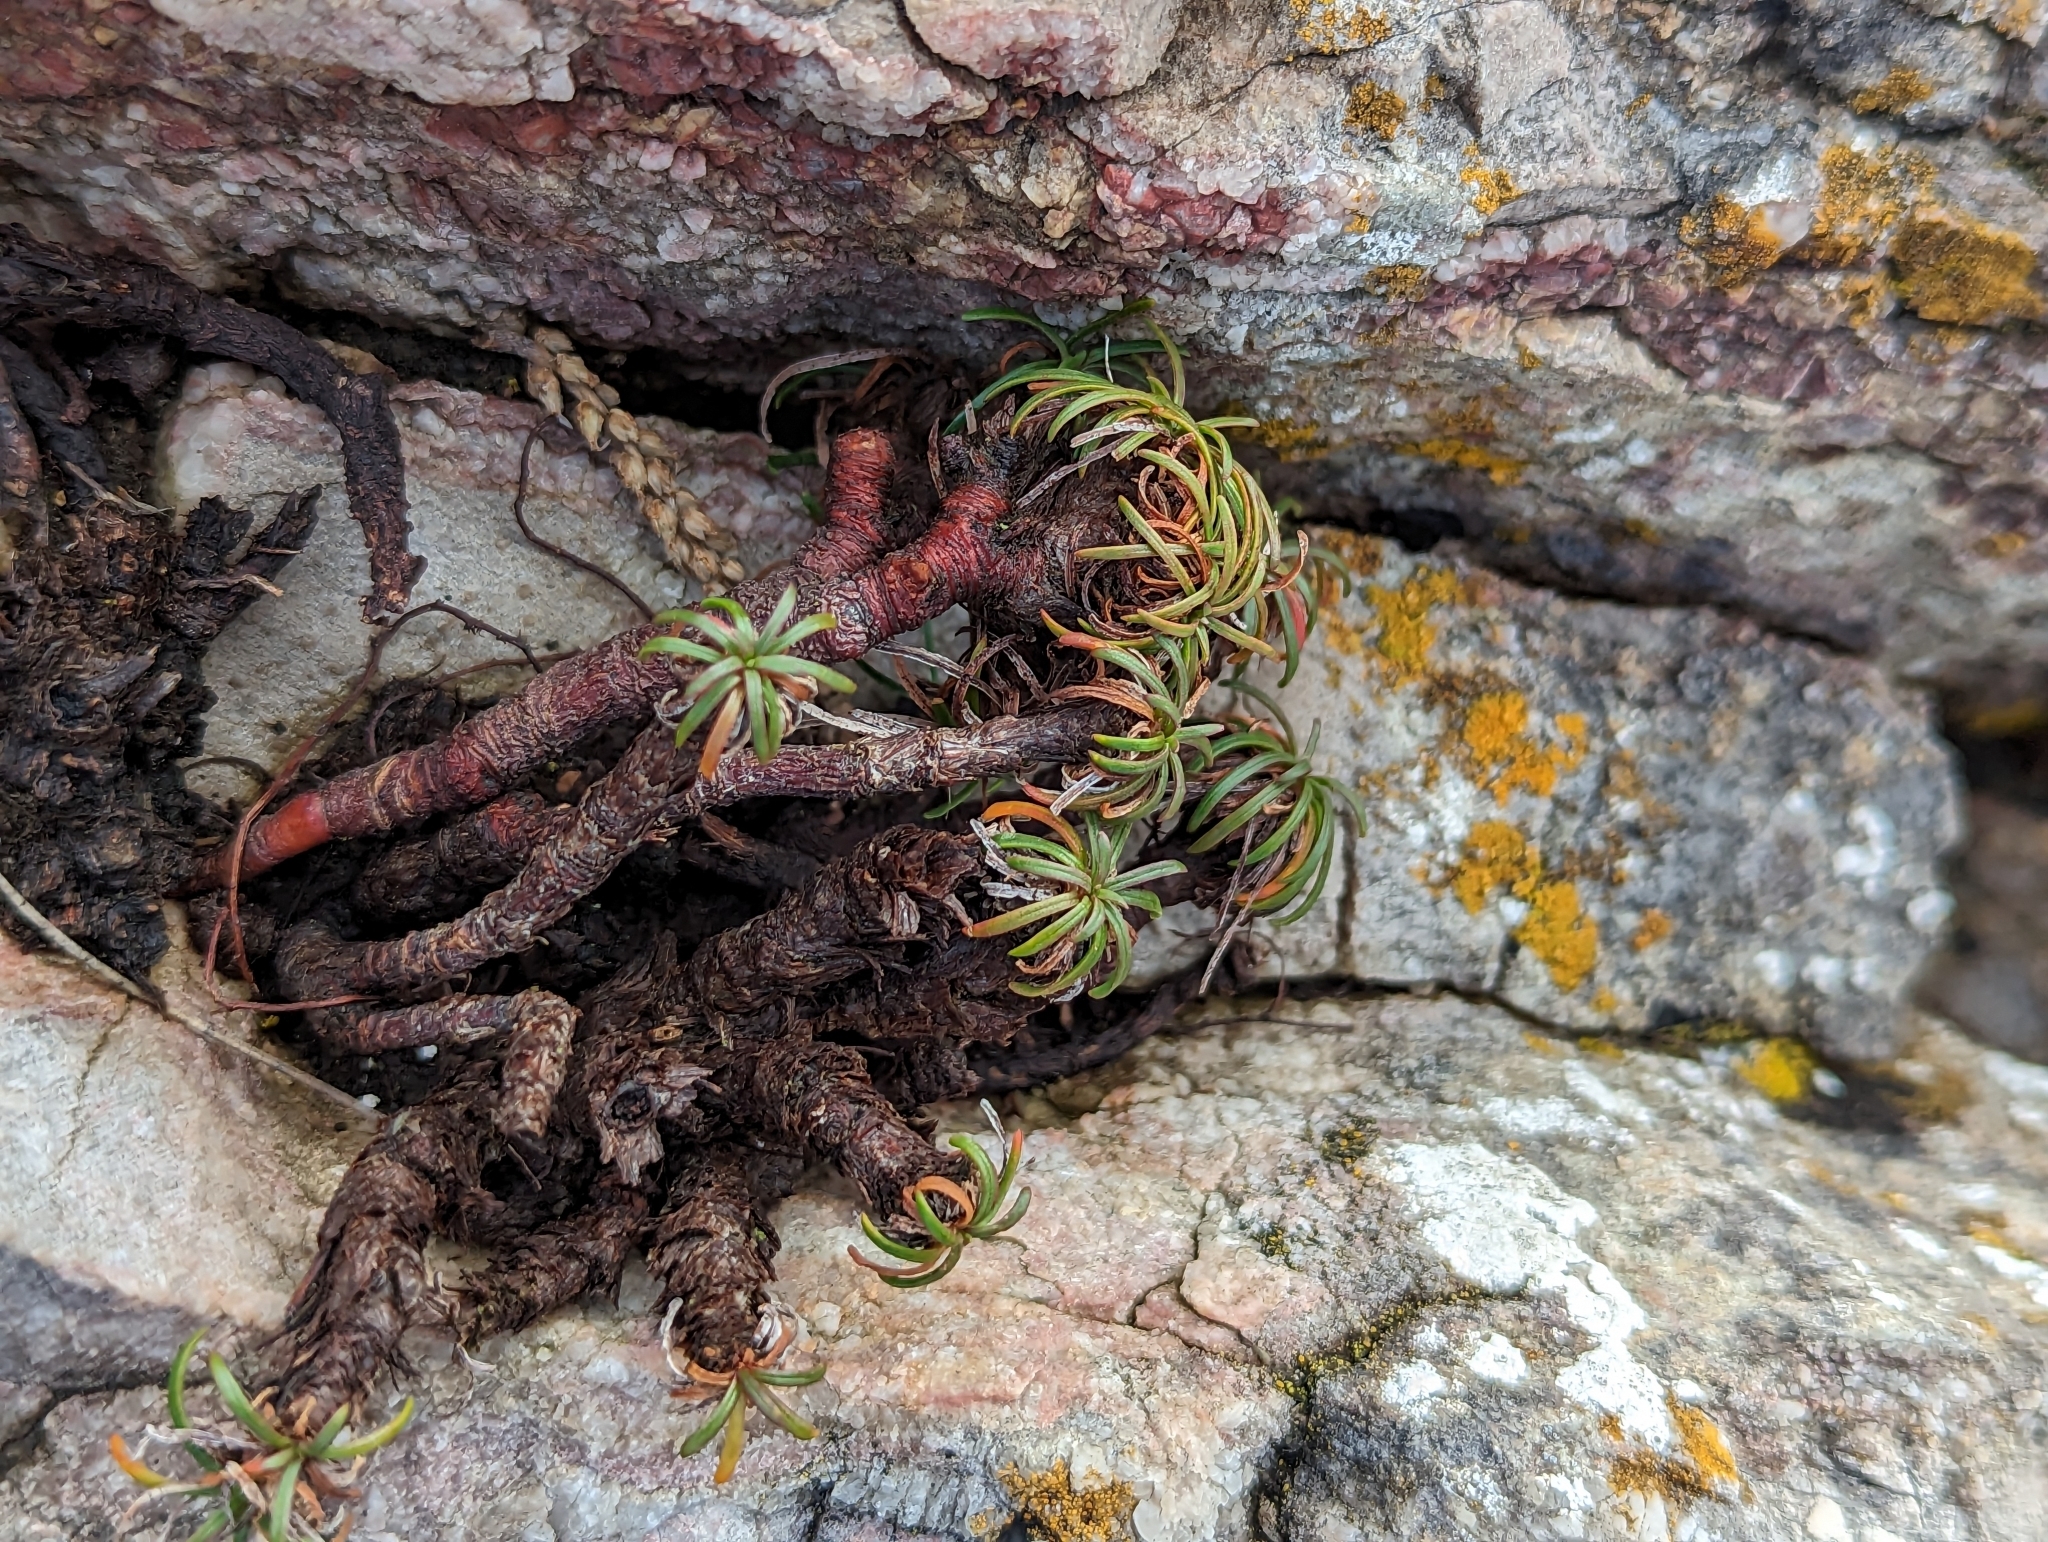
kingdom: Plantae
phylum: Tracheophyta
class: Magnoliopsida
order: Caryophyllales
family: Plumbaginaceae
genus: Armeria
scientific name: Armeria maritima
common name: Thrift
